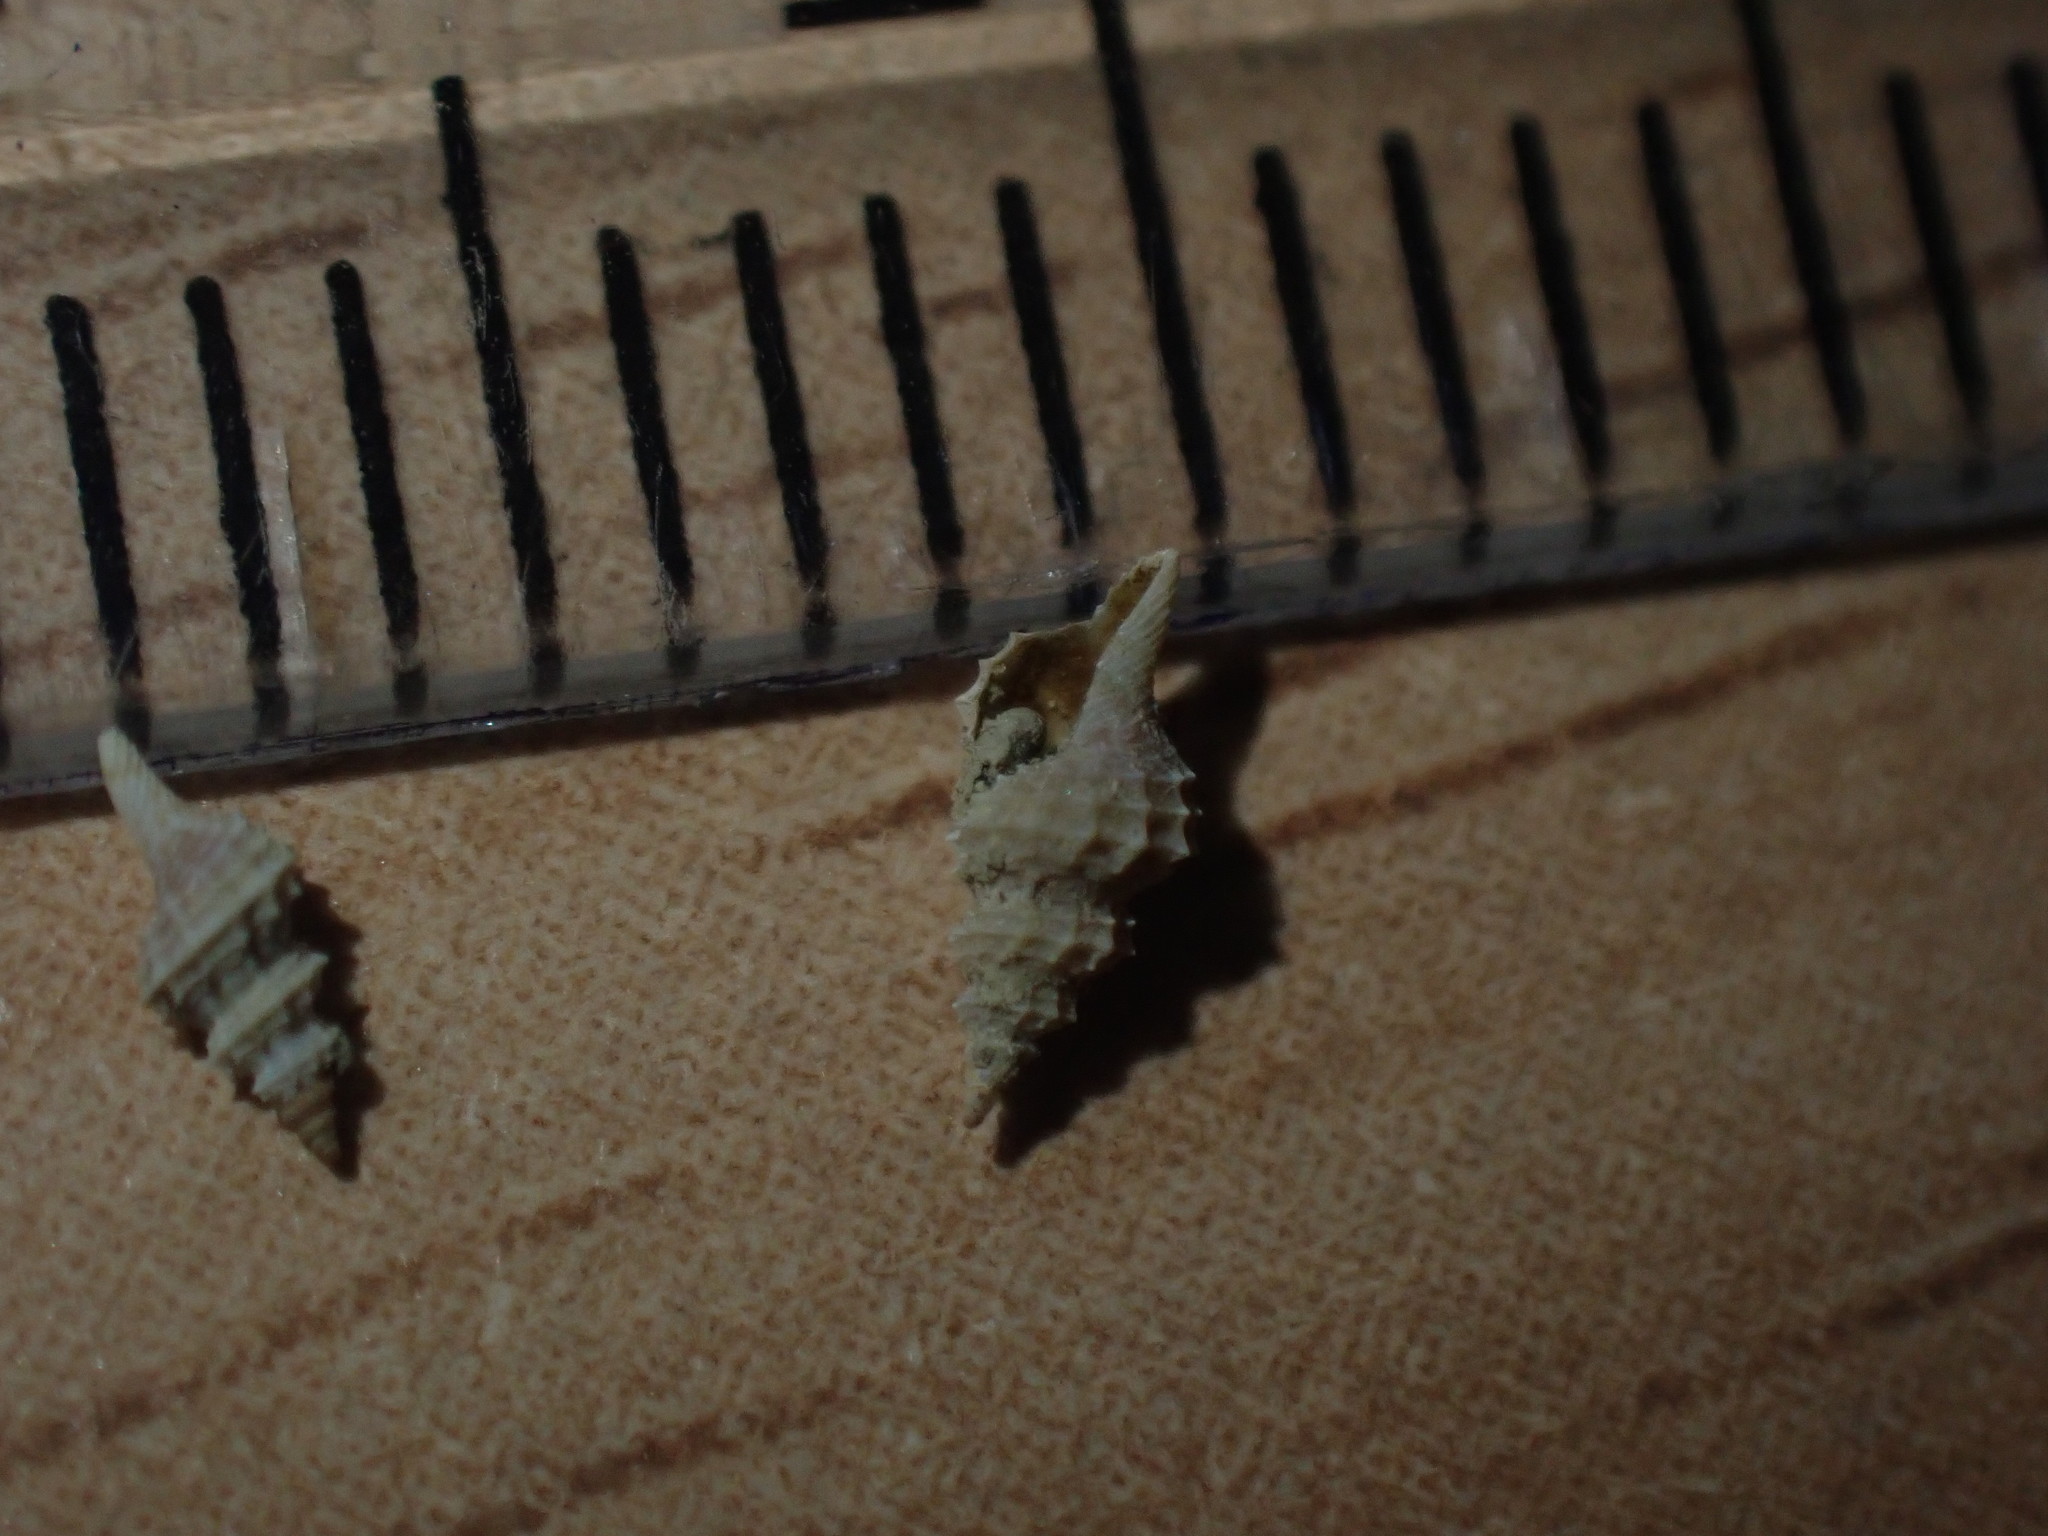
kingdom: Animalia
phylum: Mollusca
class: Gastropoda
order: Neogastropoda
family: Raphitomidae
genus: Veprecula
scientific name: Veprecula cooperi
